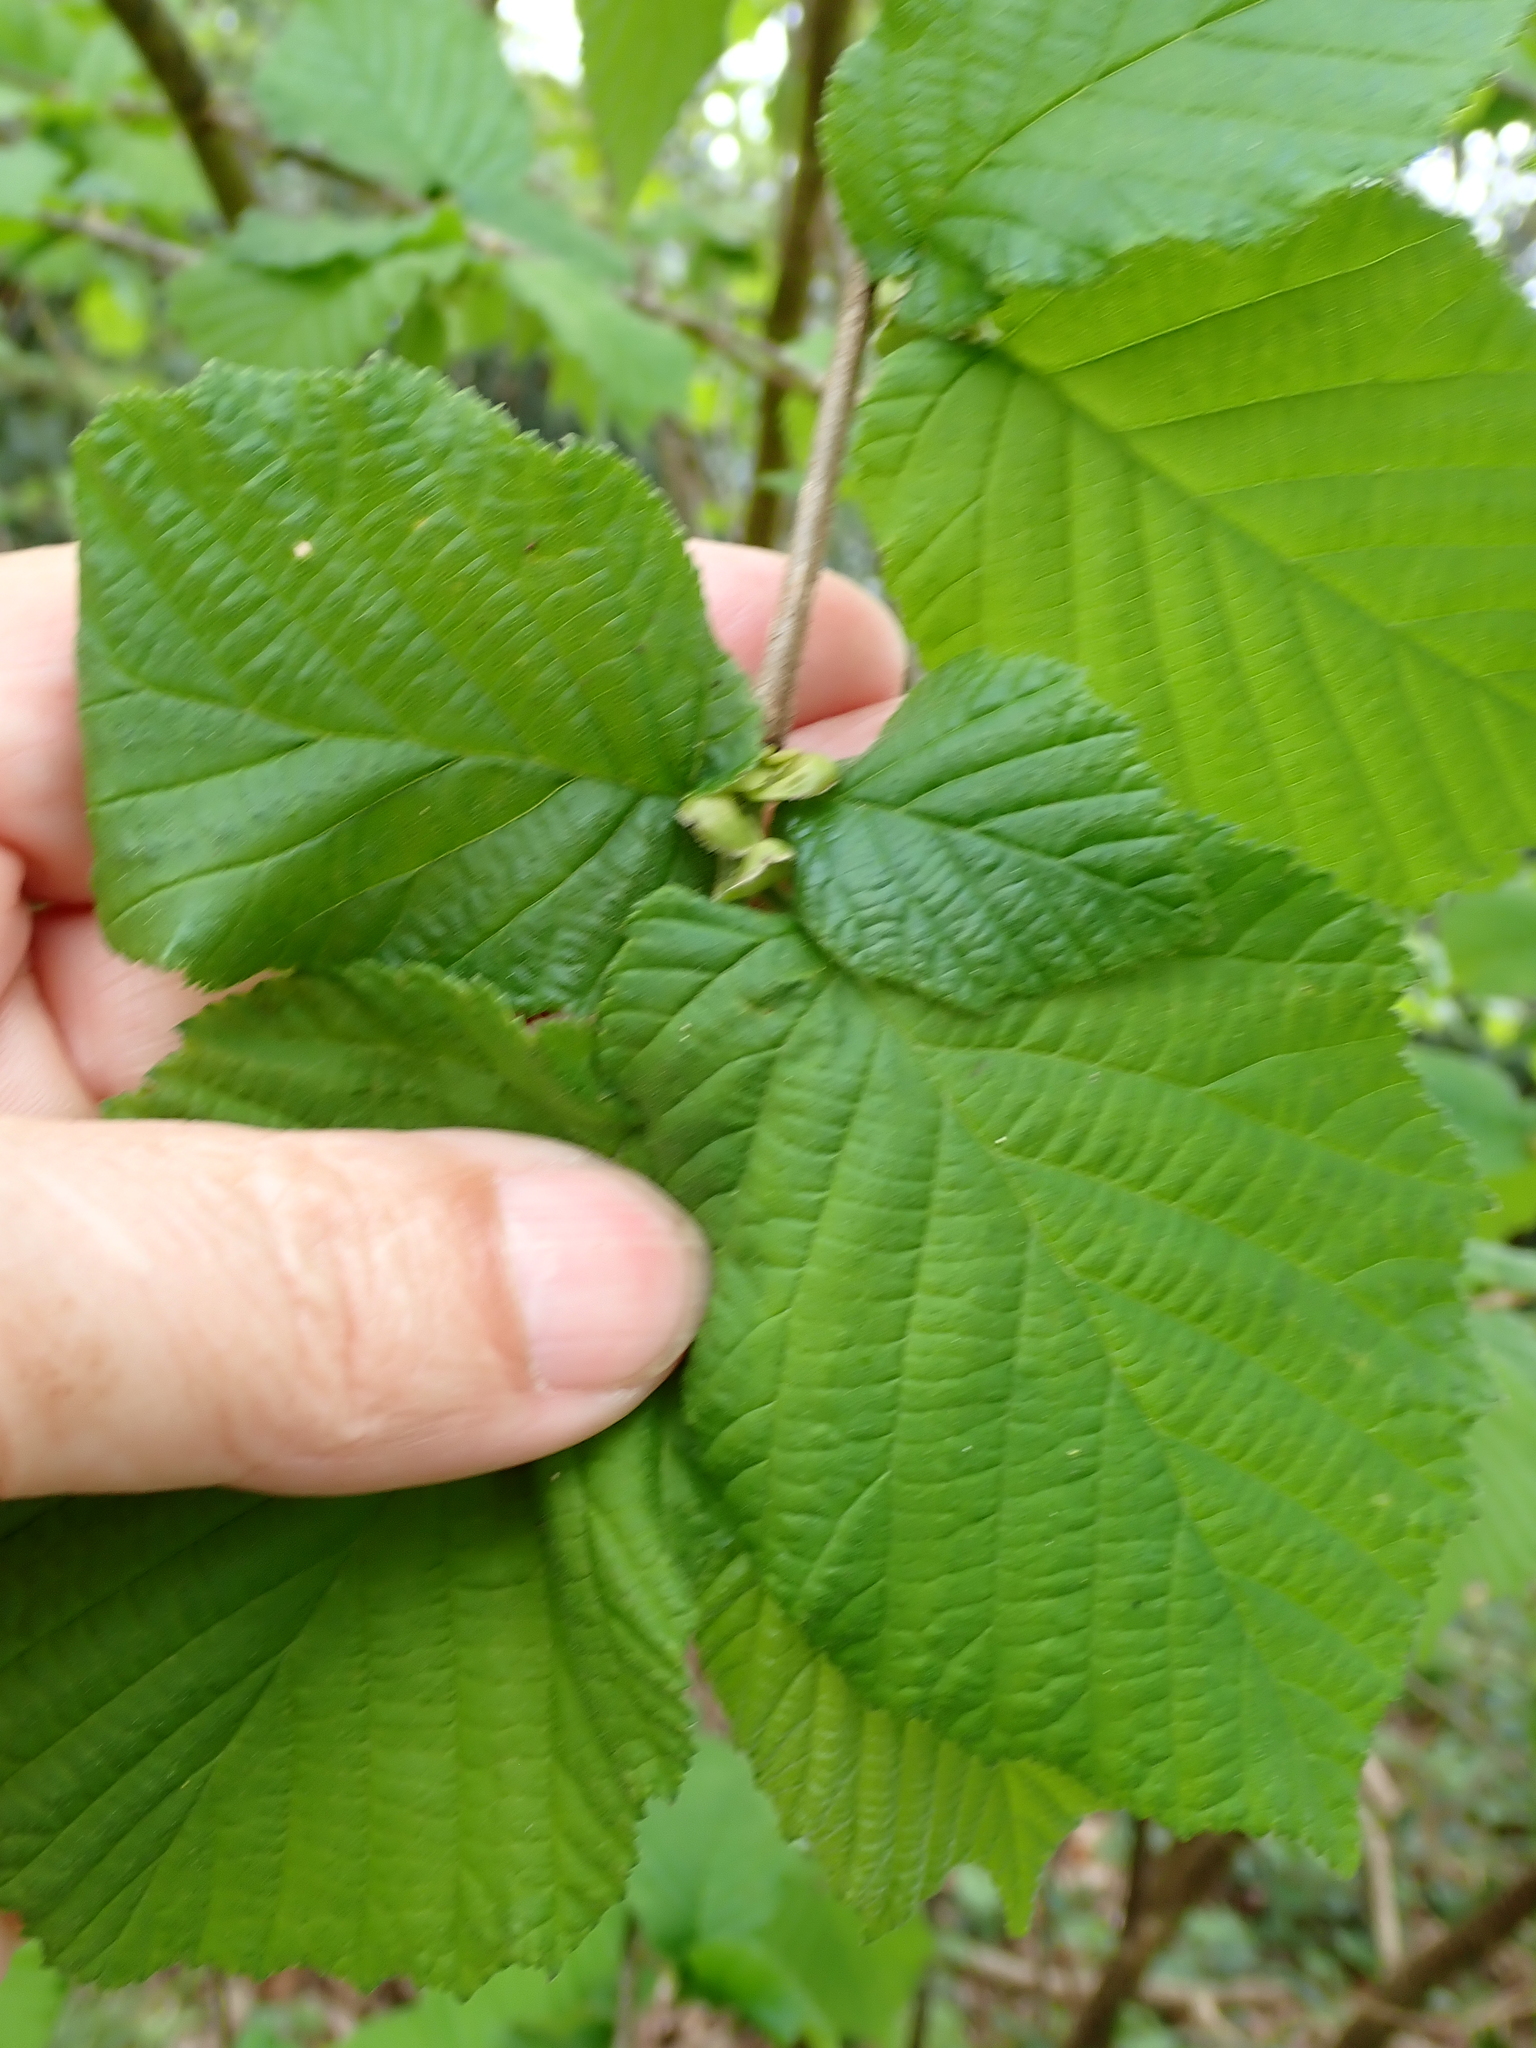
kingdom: Plantae
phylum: Tracheophyta
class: Magnoliopsida
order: Fagales
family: Betulaceae
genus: Corylus
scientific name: Corylus avellana
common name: European hazel
